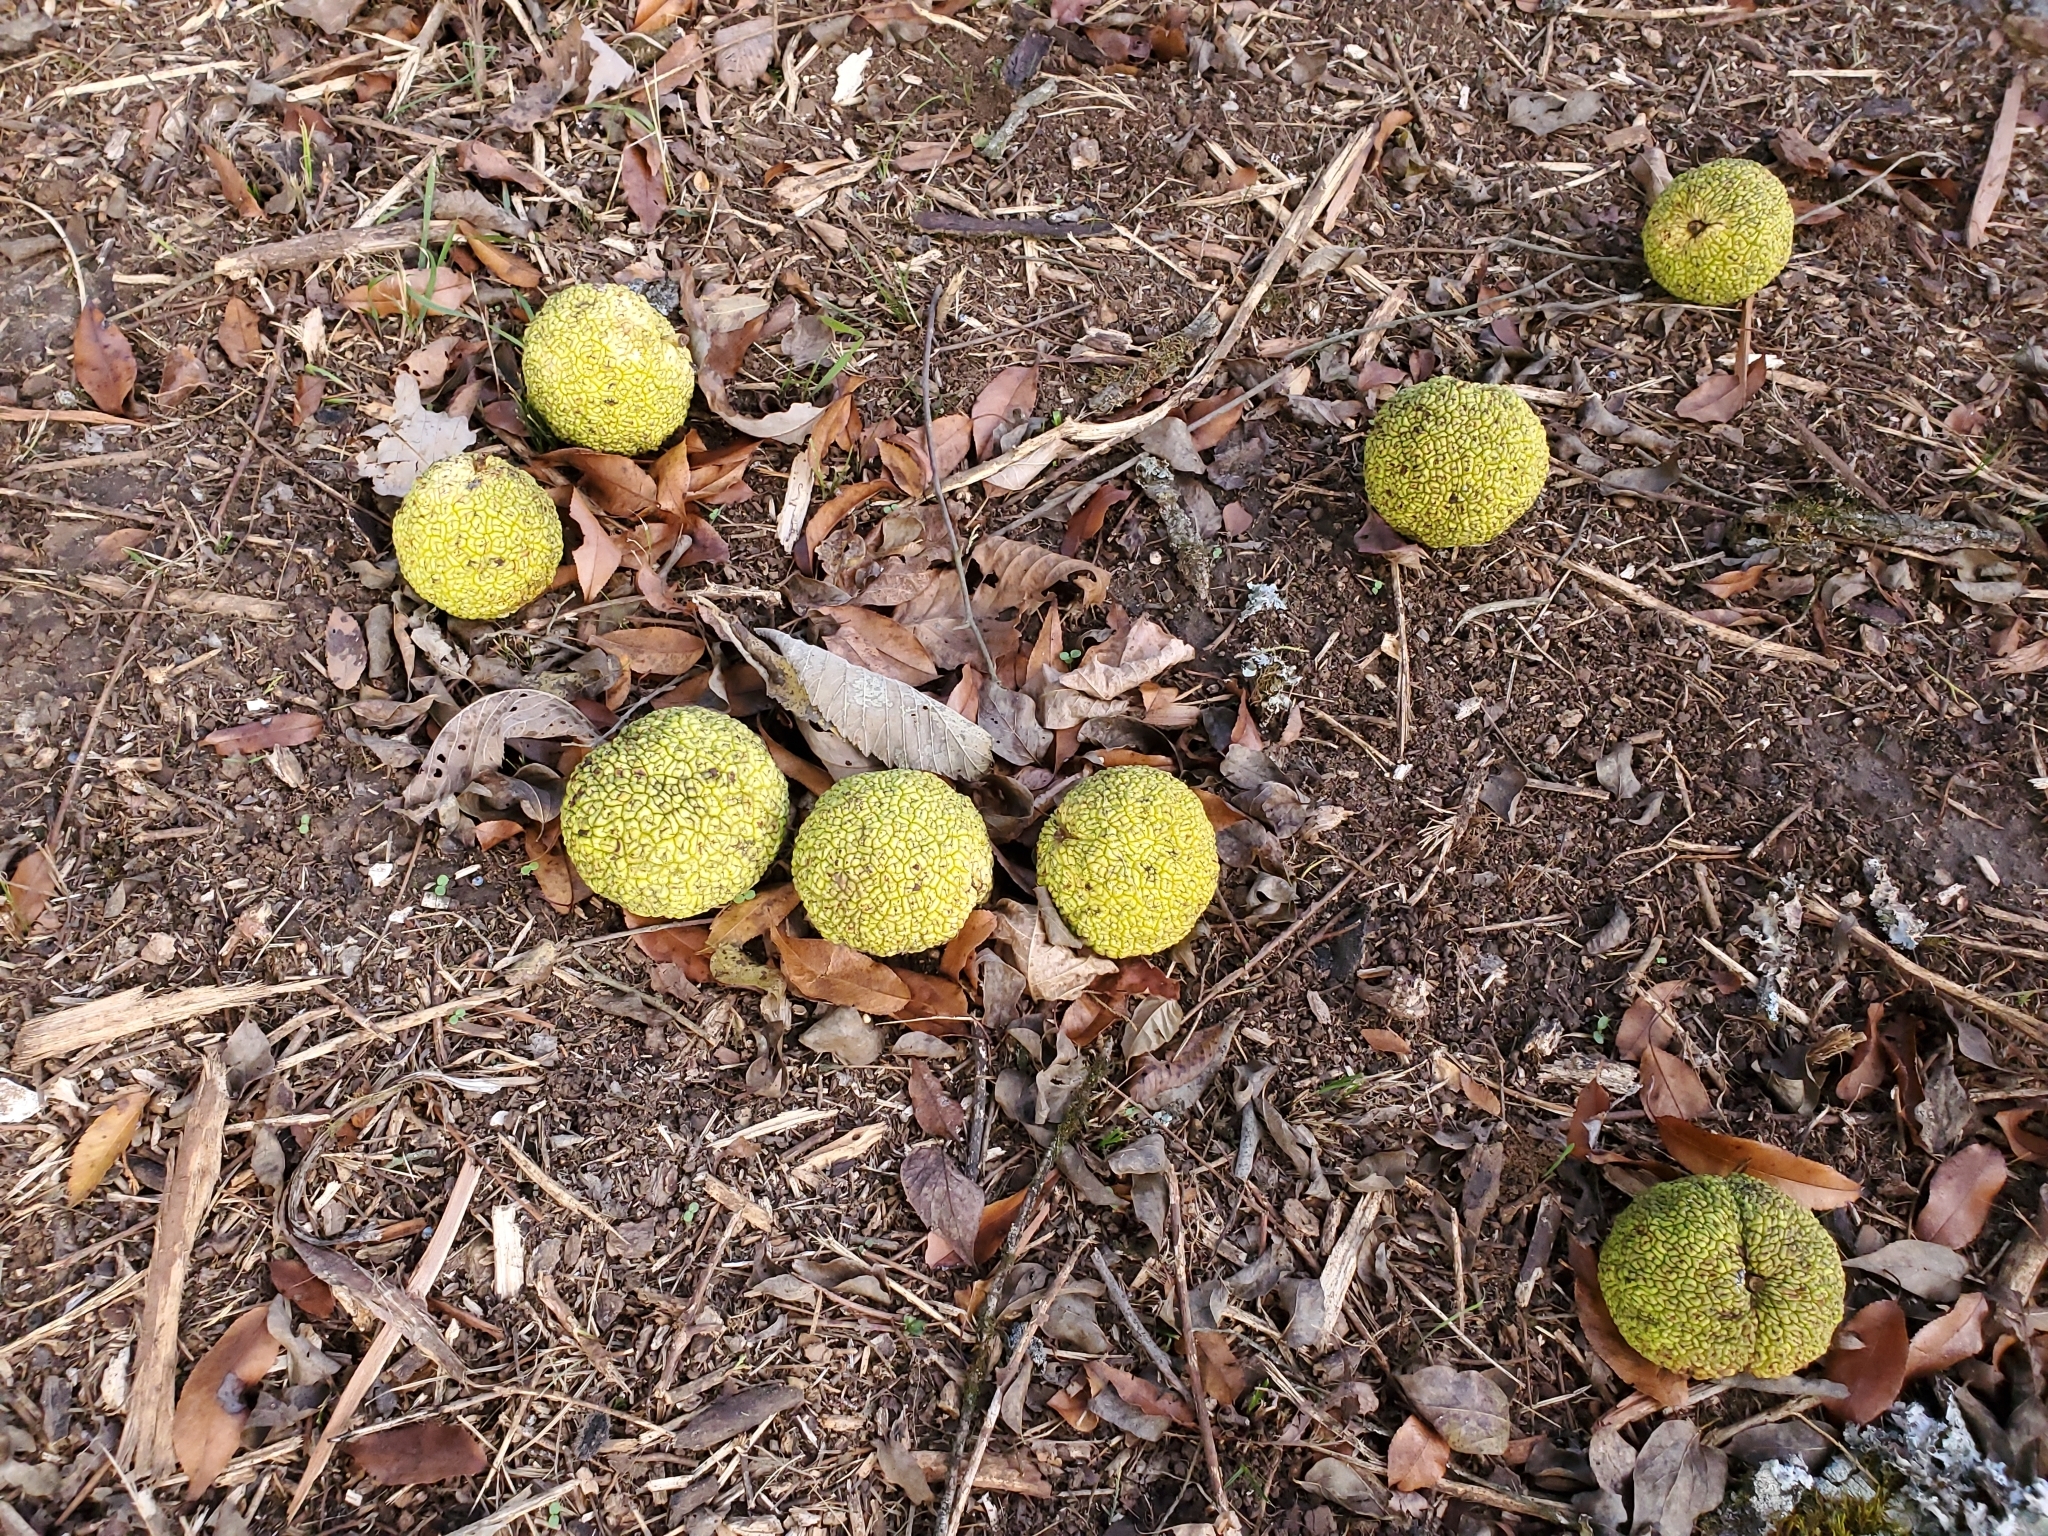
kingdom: Plantae
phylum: Tracheophyta
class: Magnoliopsida
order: Rosales
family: Moraceae
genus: Maclura
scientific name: Maclura pomifera
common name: Osage-orange
